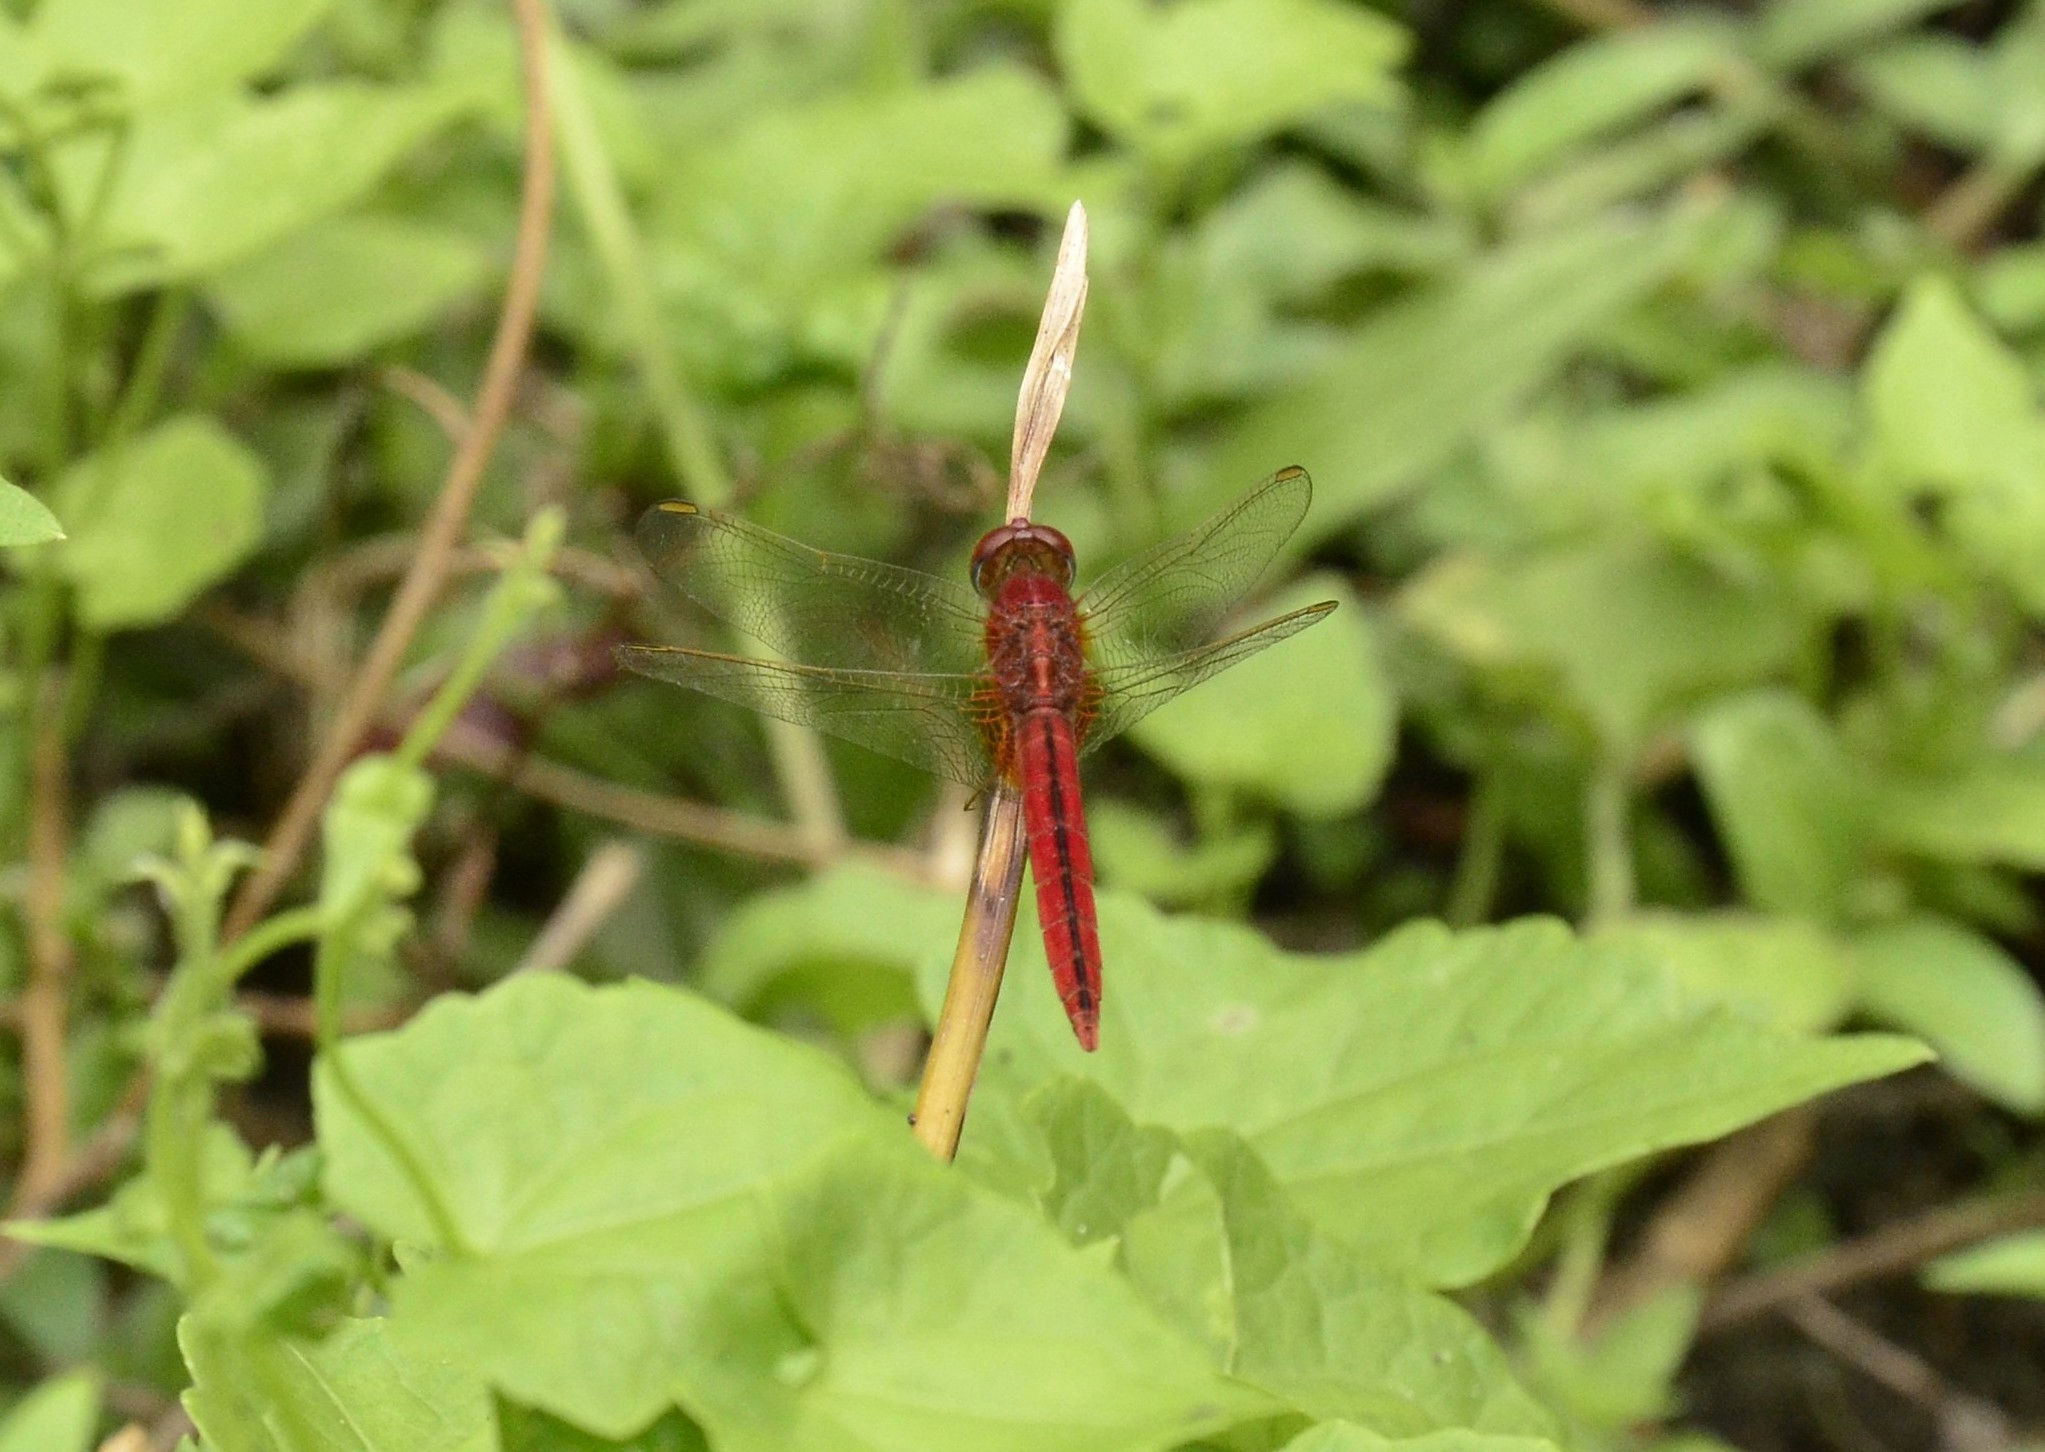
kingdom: Animalia
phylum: Arthropoda
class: Insecta
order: Odonata
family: Libellulidae
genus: Crocothemis
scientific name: Crocothemis servilia
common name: Scarlet skimmer
